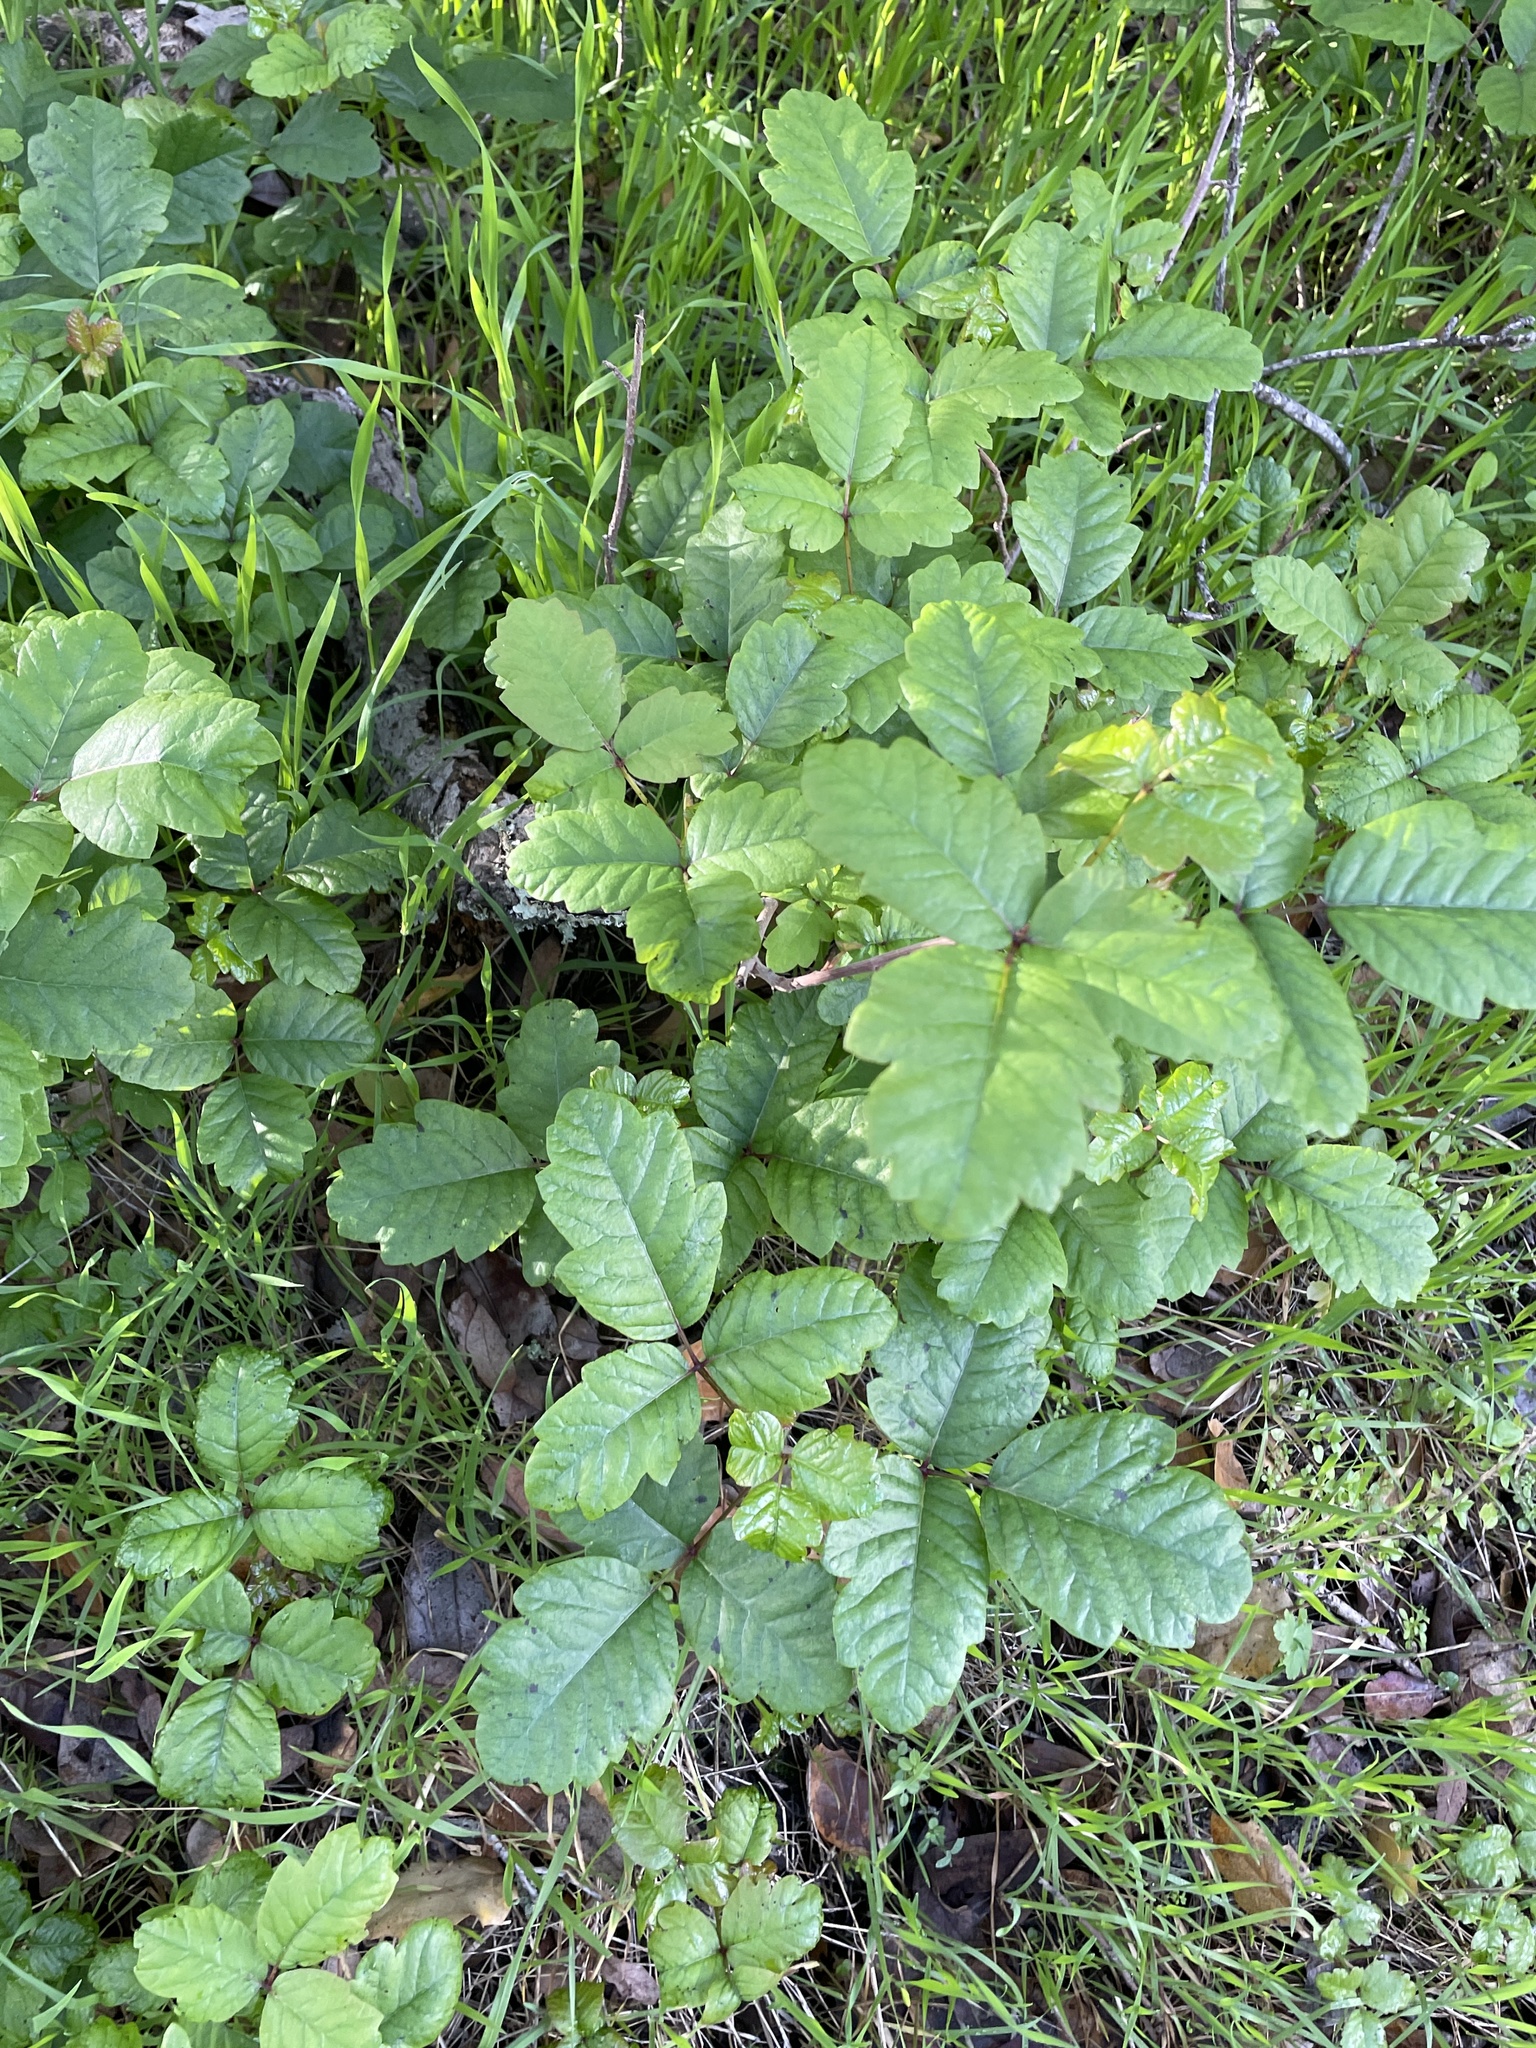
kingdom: Plantae
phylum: Tracheophyta
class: Magnoliopsida
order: Sapindales
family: Anacardiaceae
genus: Toxicodendron
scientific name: Toxicodendron diversilobum
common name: Pacific poison-oak
